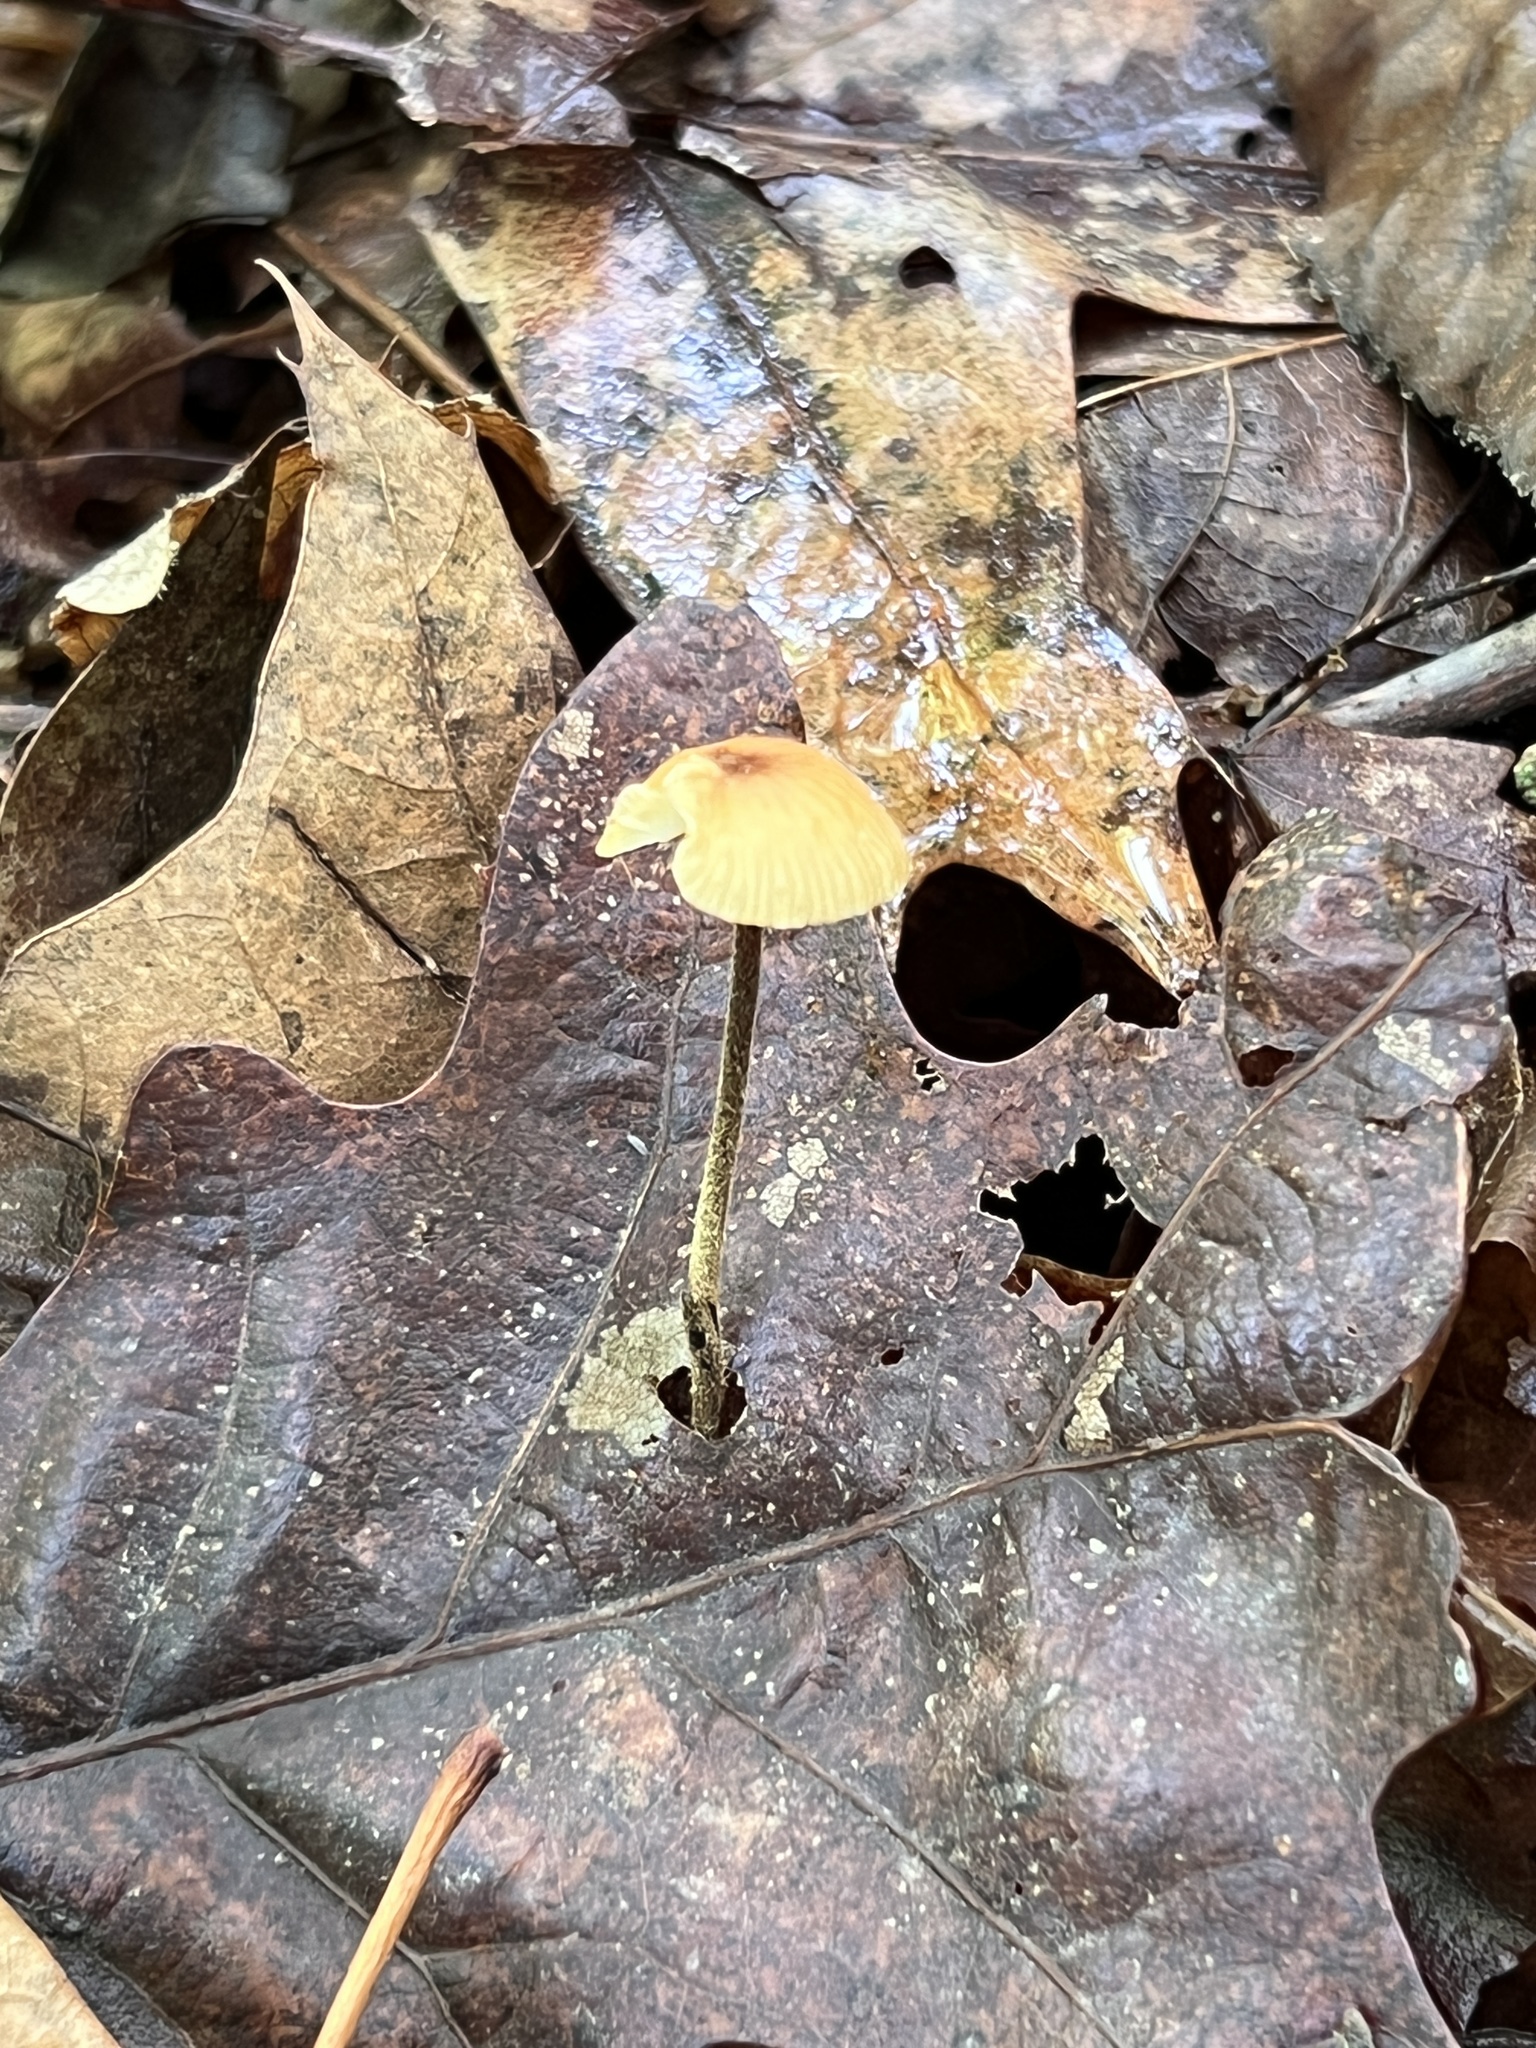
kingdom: Fungi
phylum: Basidiomycota
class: Agaricomycetes
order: Agaricales
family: Physalacriaceae
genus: Rhizomarasmius
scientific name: Rhizomarasmius pyrrhocephalus
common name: Hairy long stem marasmius
